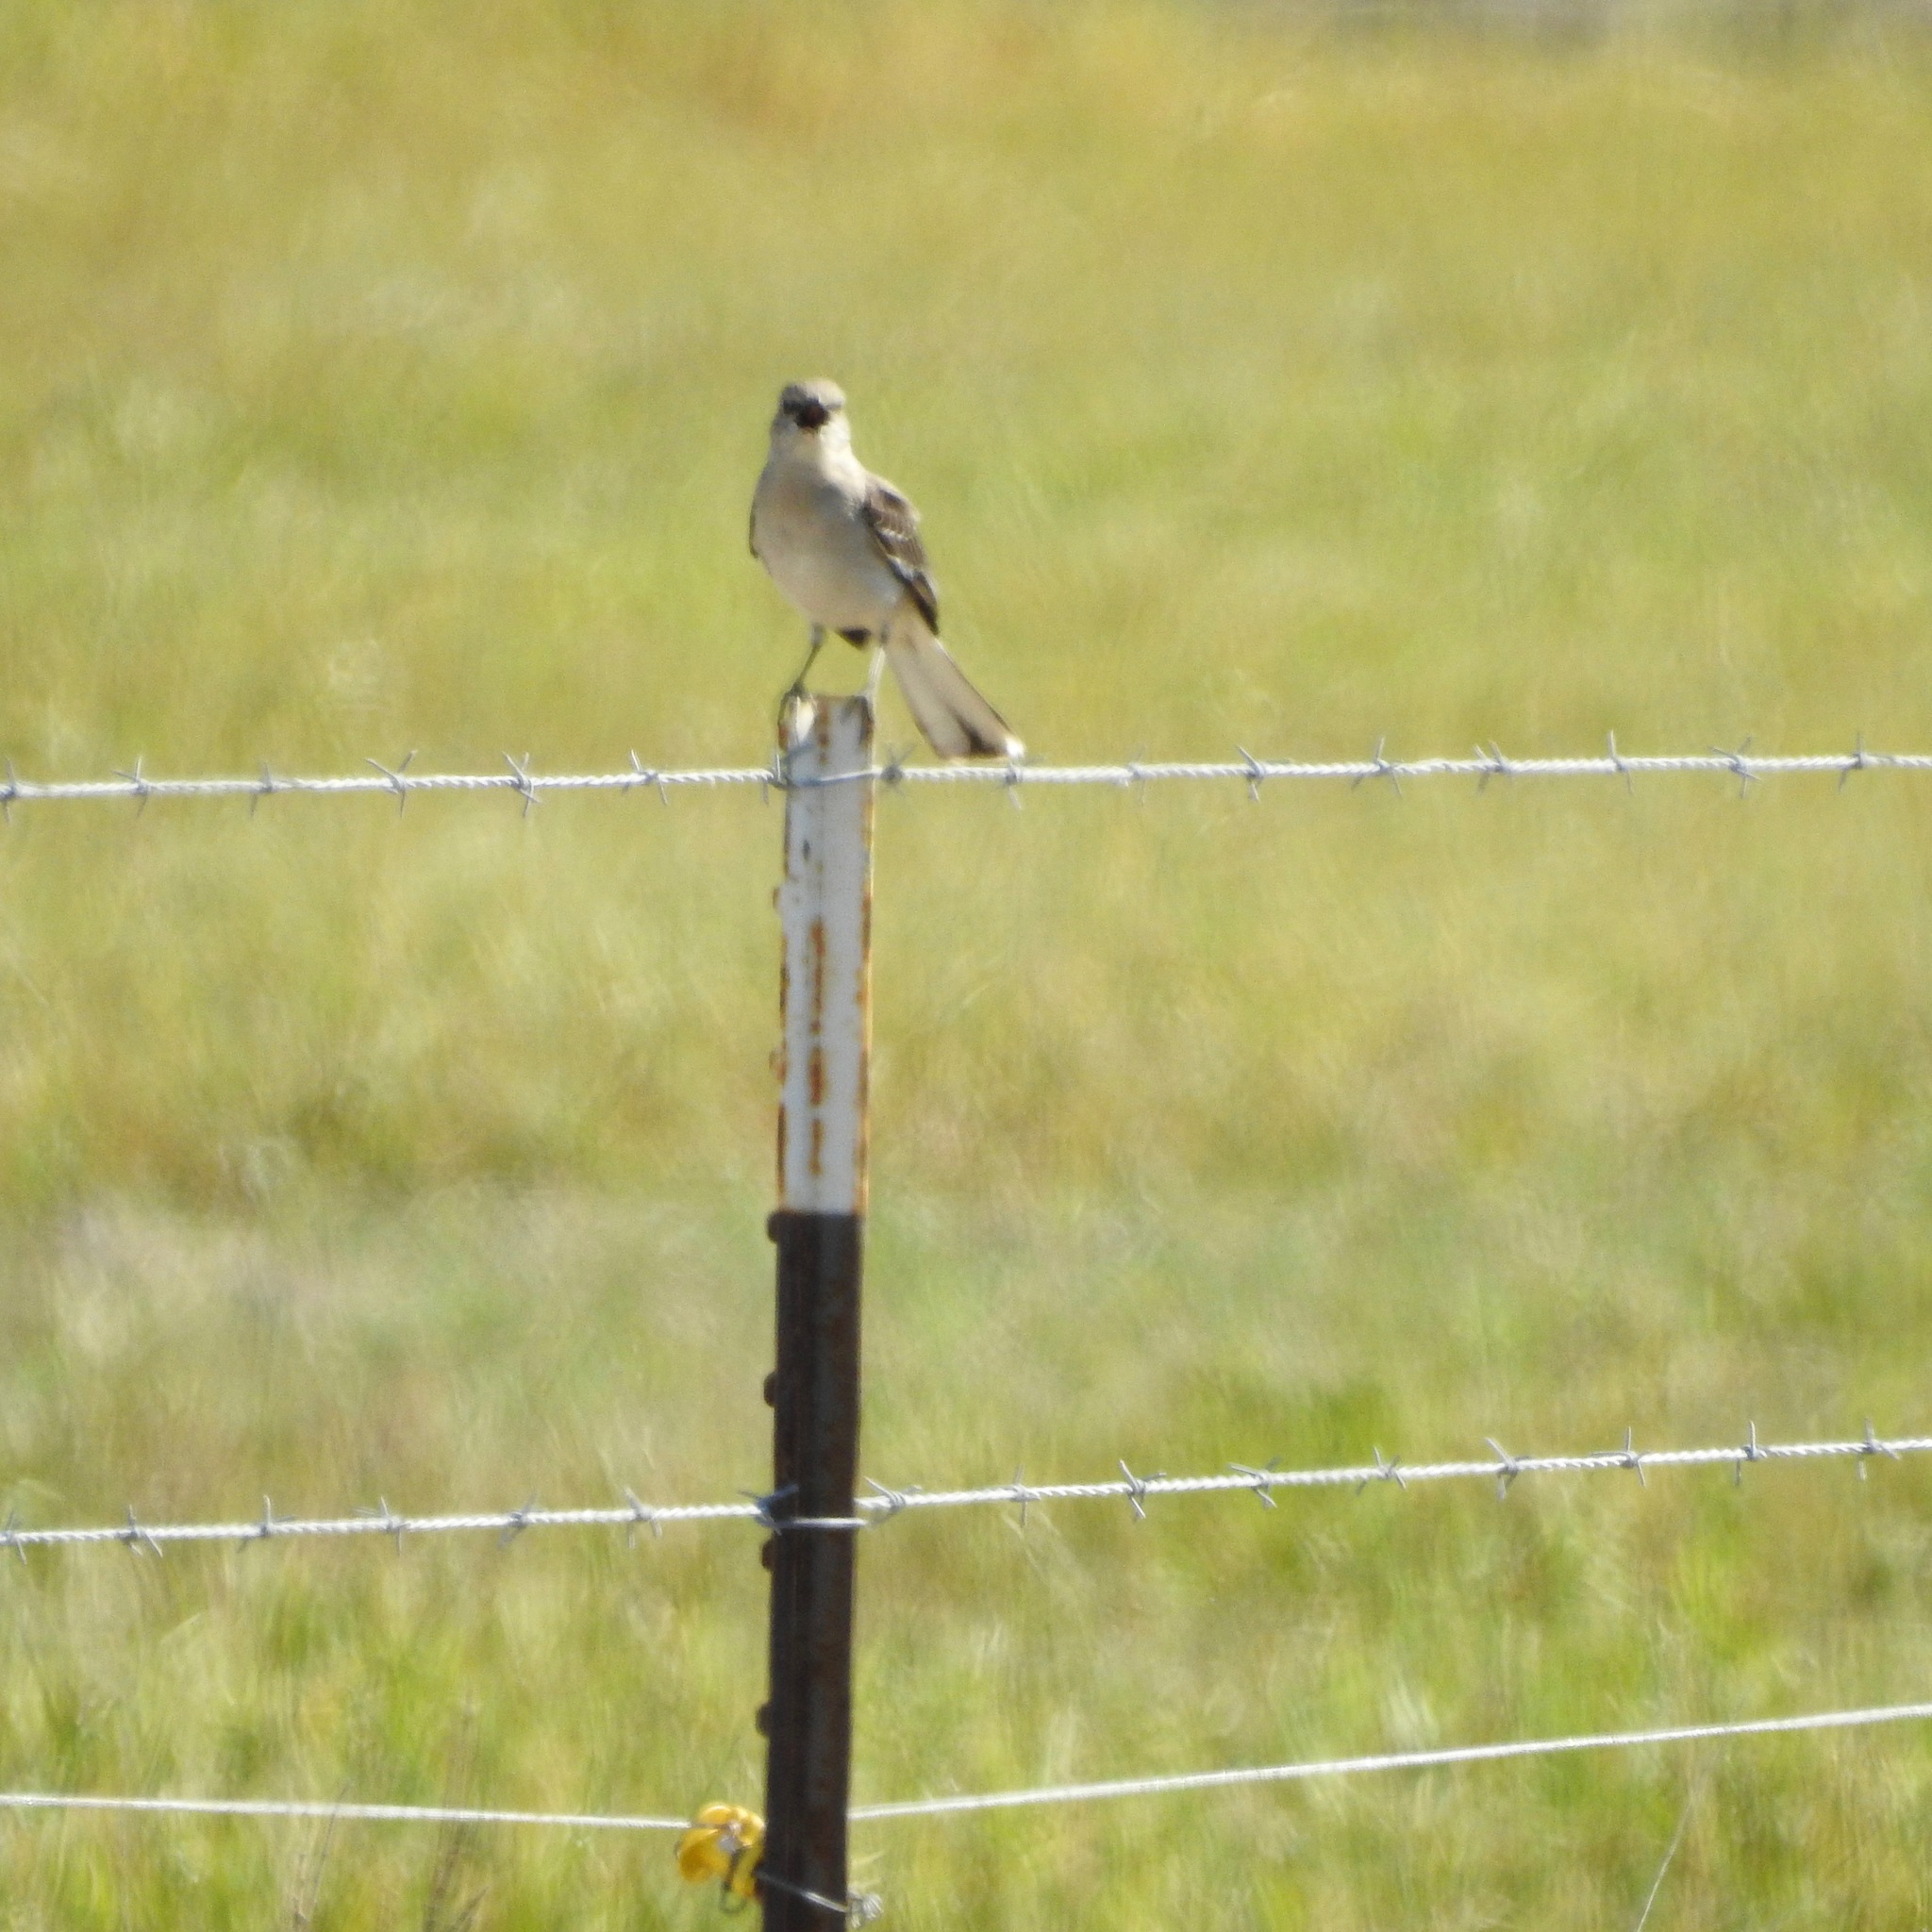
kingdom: Animalia
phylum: Chordata
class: Aves
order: Passeriformes
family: Mimidae
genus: Mimus
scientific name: Mimus polyglottos
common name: Northern mockingbird
